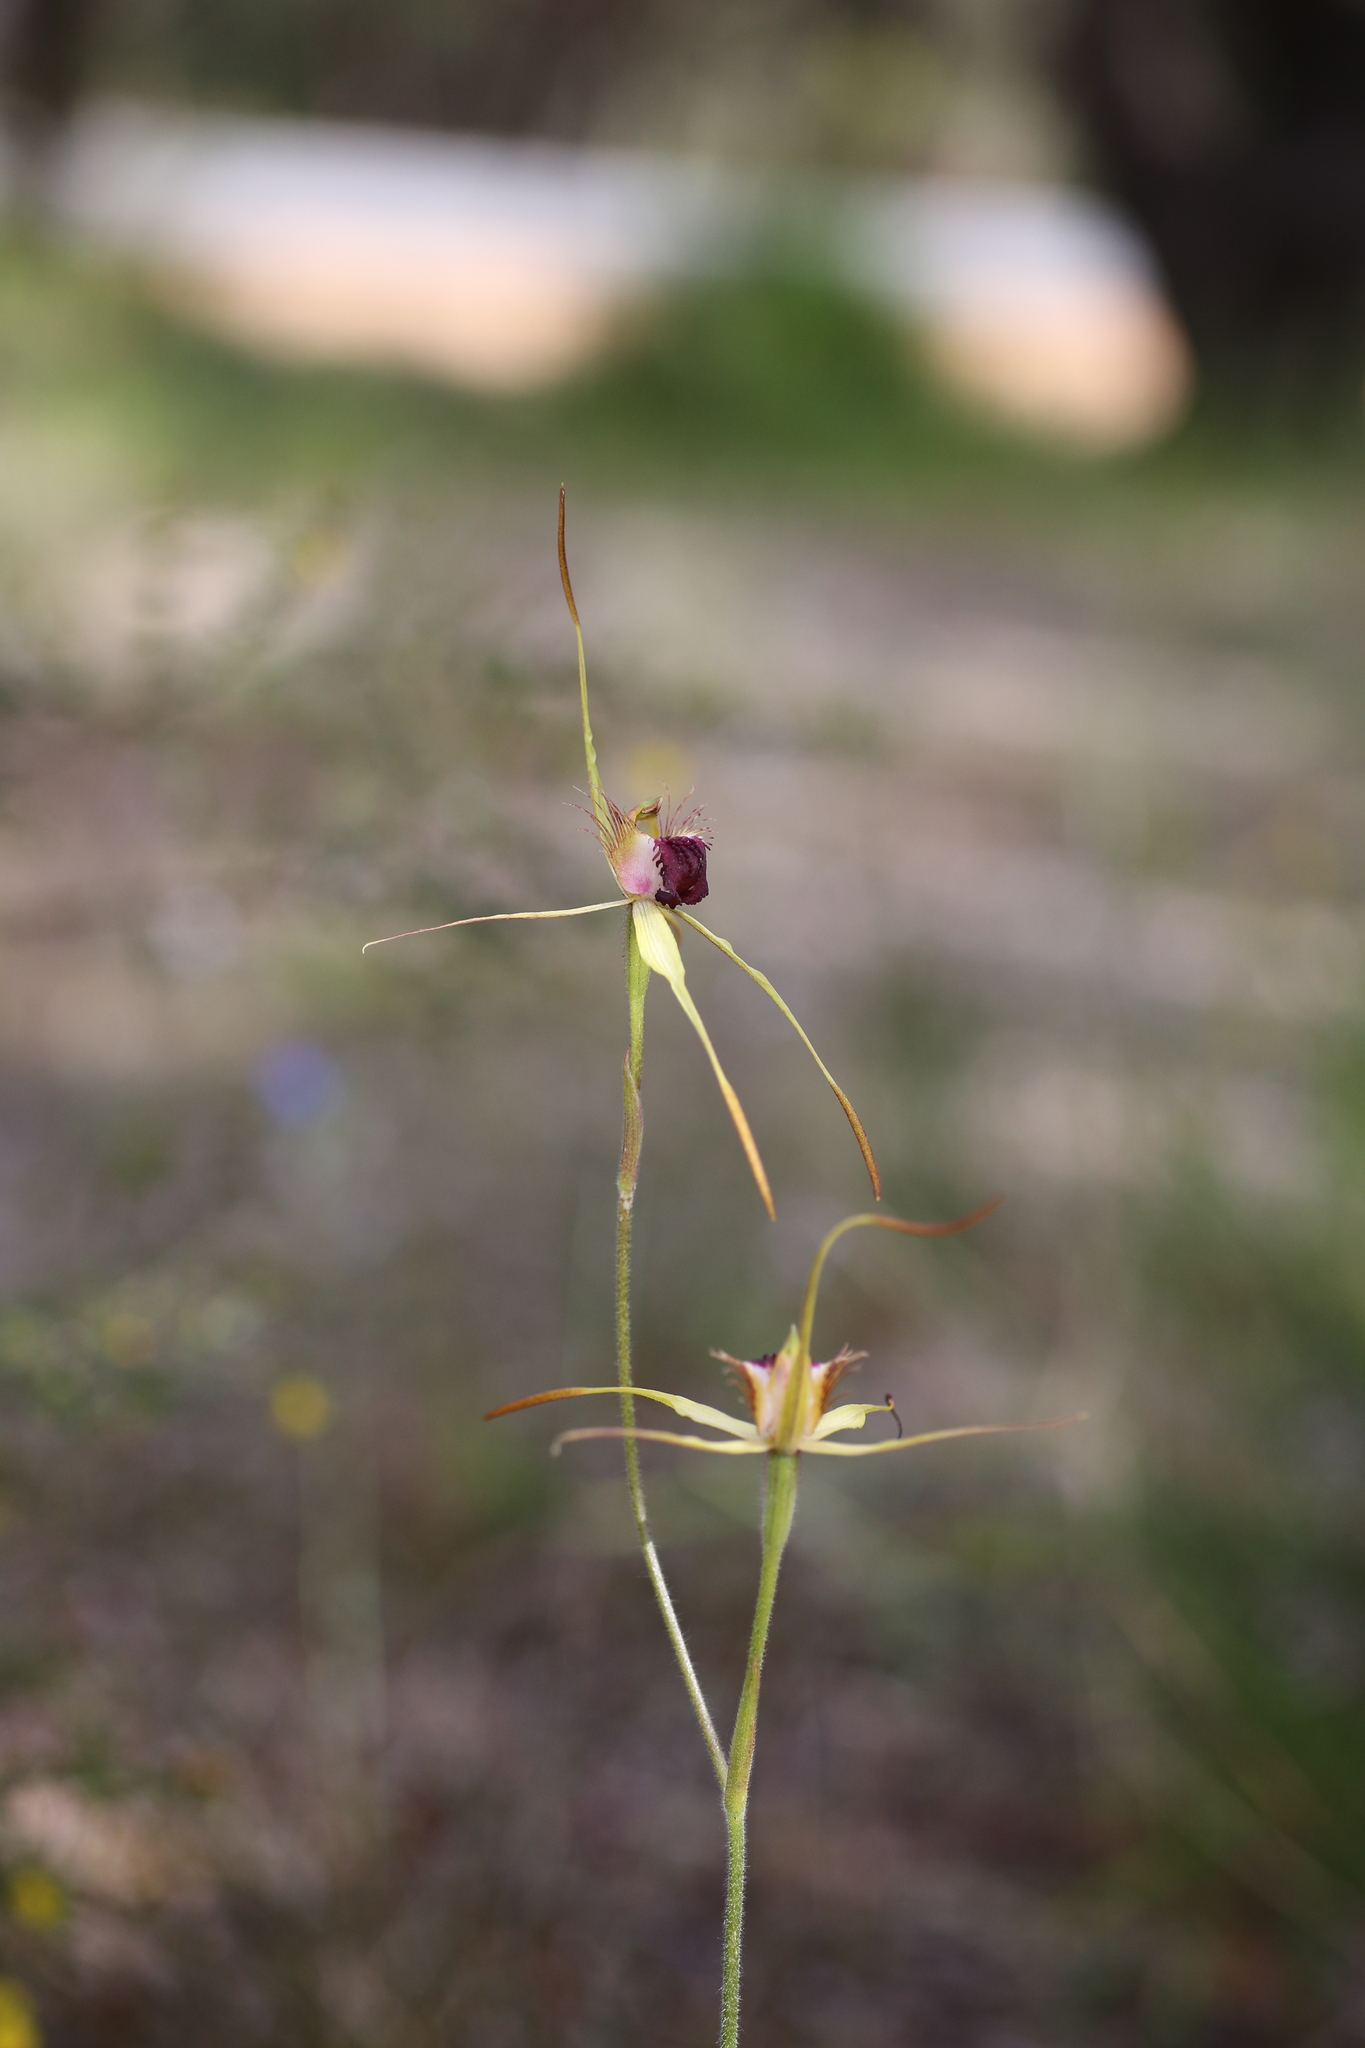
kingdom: Plantae
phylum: Tracheophyta
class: Liliopsida
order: Asparagales
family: Orchidaceae
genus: Caladenia
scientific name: Caladenia thinicola
